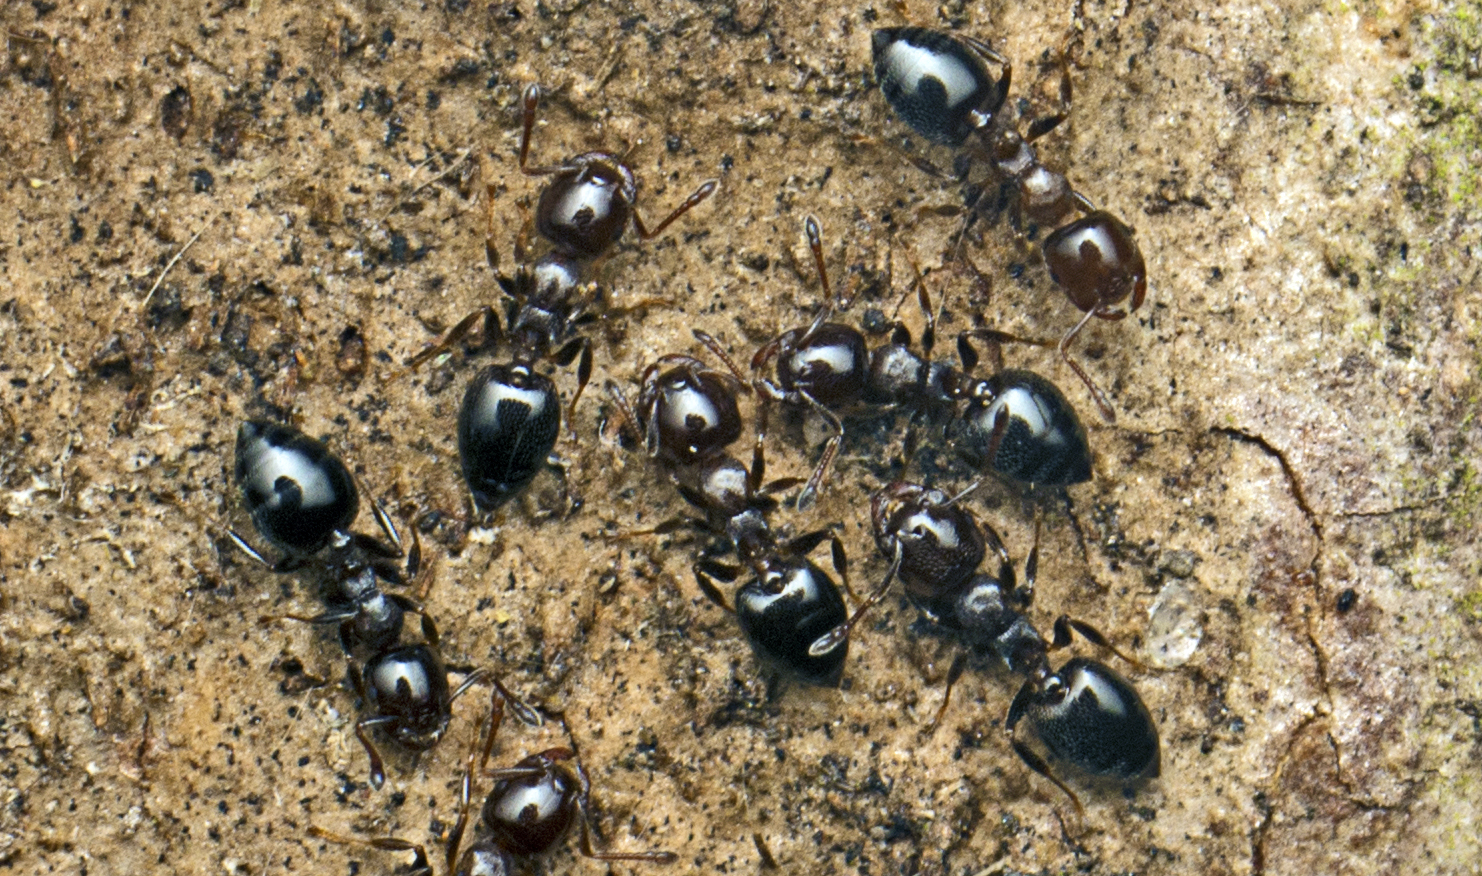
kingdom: Animalia
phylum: Arthropoda
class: Insecta
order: Hymenoptera
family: Formicidae
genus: Crematogaster
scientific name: Crematogaster cornigera
